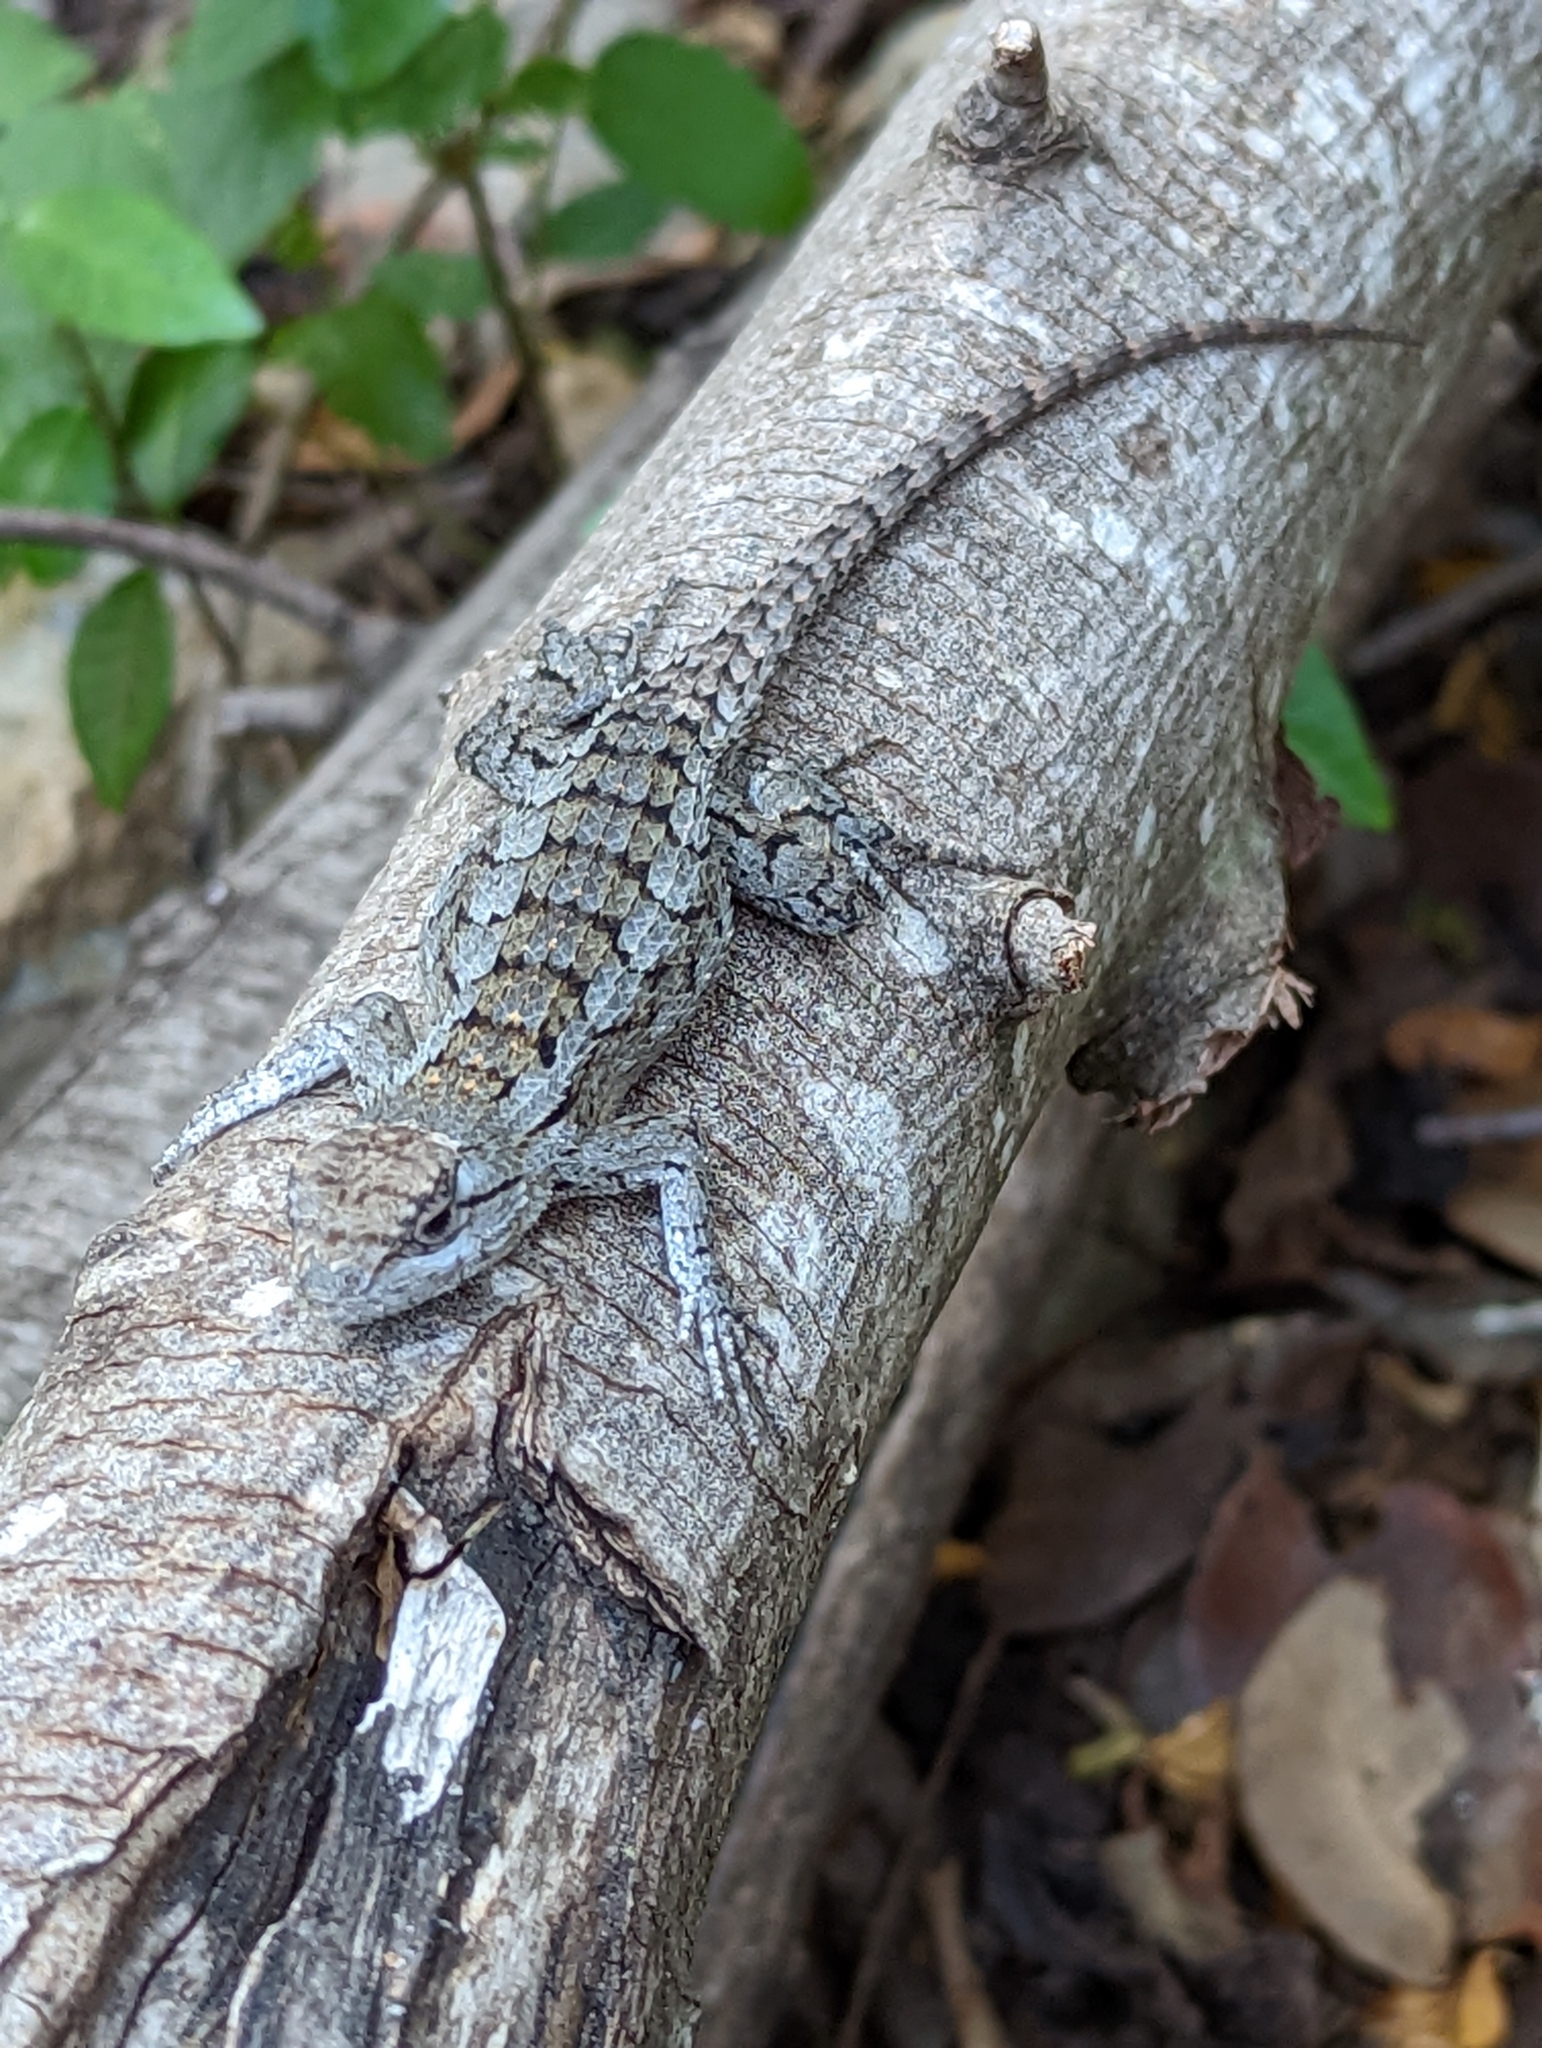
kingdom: Animalia
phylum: Chordata
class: Squamata
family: Phrynosomatidae
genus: Sceloporus
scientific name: Sceloporus olivaceus
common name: Texas spiny lizard
